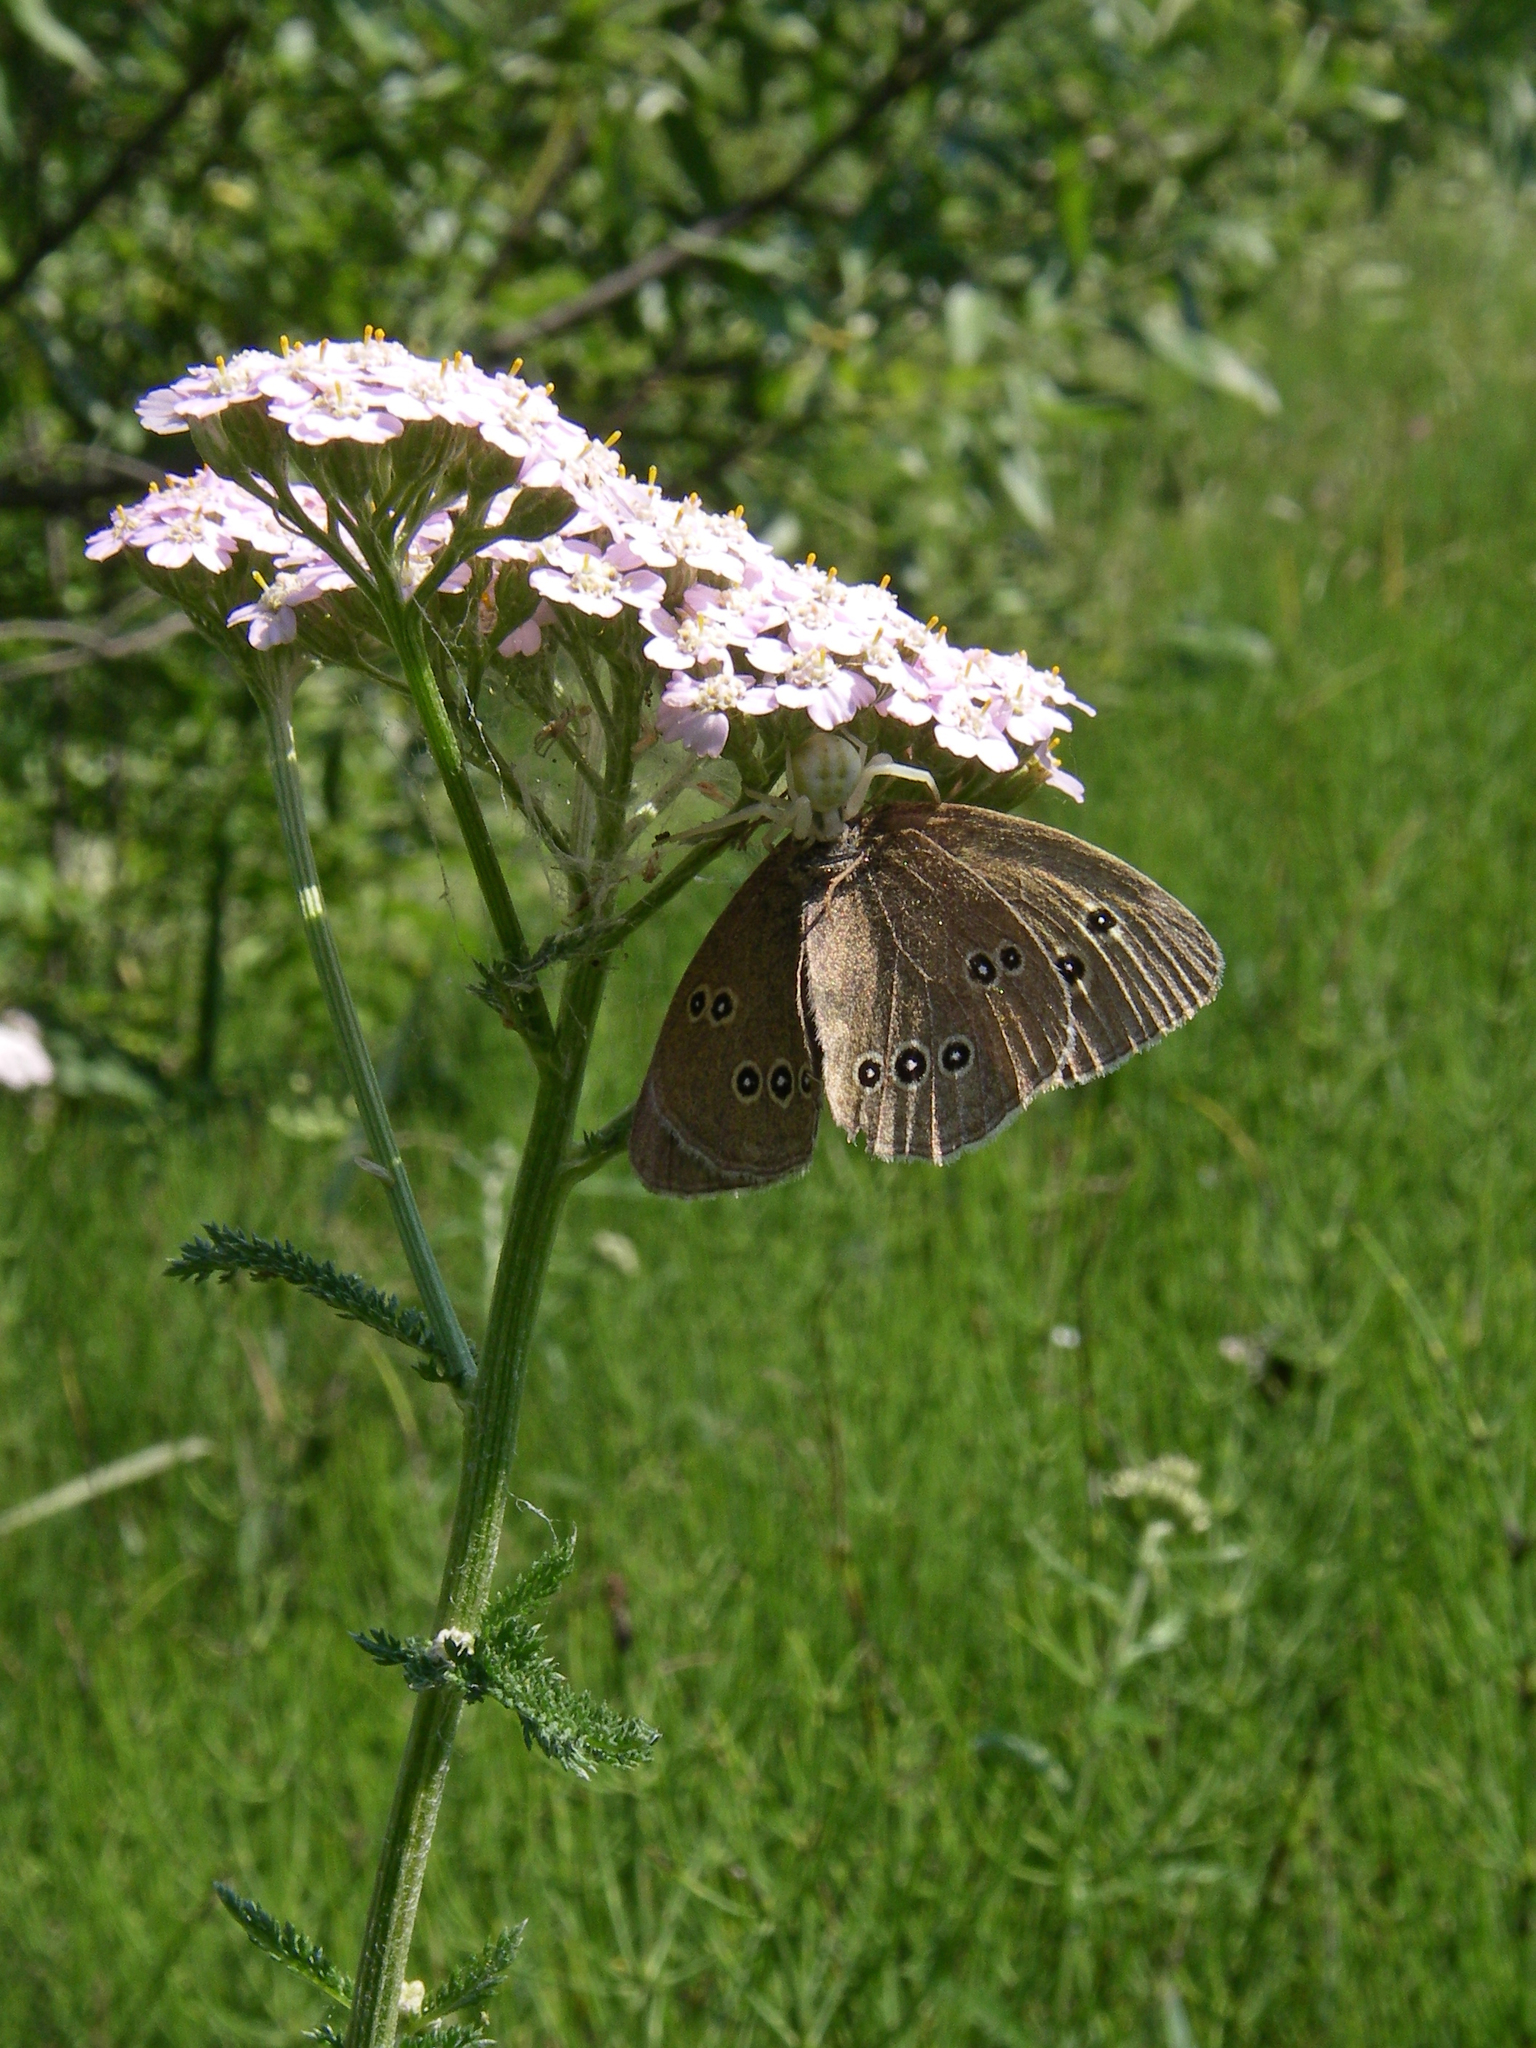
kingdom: Animalia
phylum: Arthropoda
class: Insecta
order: Lepidoptera
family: Nymphalidae
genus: Aphantopus
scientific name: Aphantopus hyperantus
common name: Ringlet
